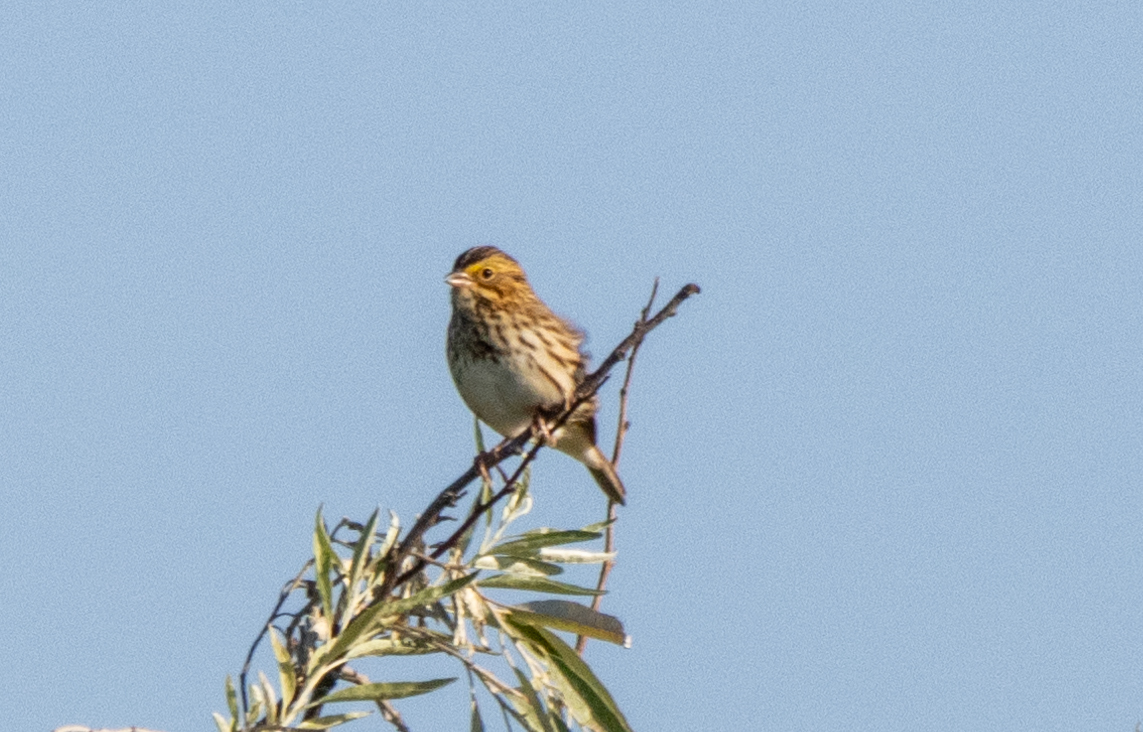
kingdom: Animalia
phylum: Chordata
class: Aves
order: Passeriformes
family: Passerellidae
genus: Passerculus
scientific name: Passerculus sandwichensis
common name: Savannah sparrow
